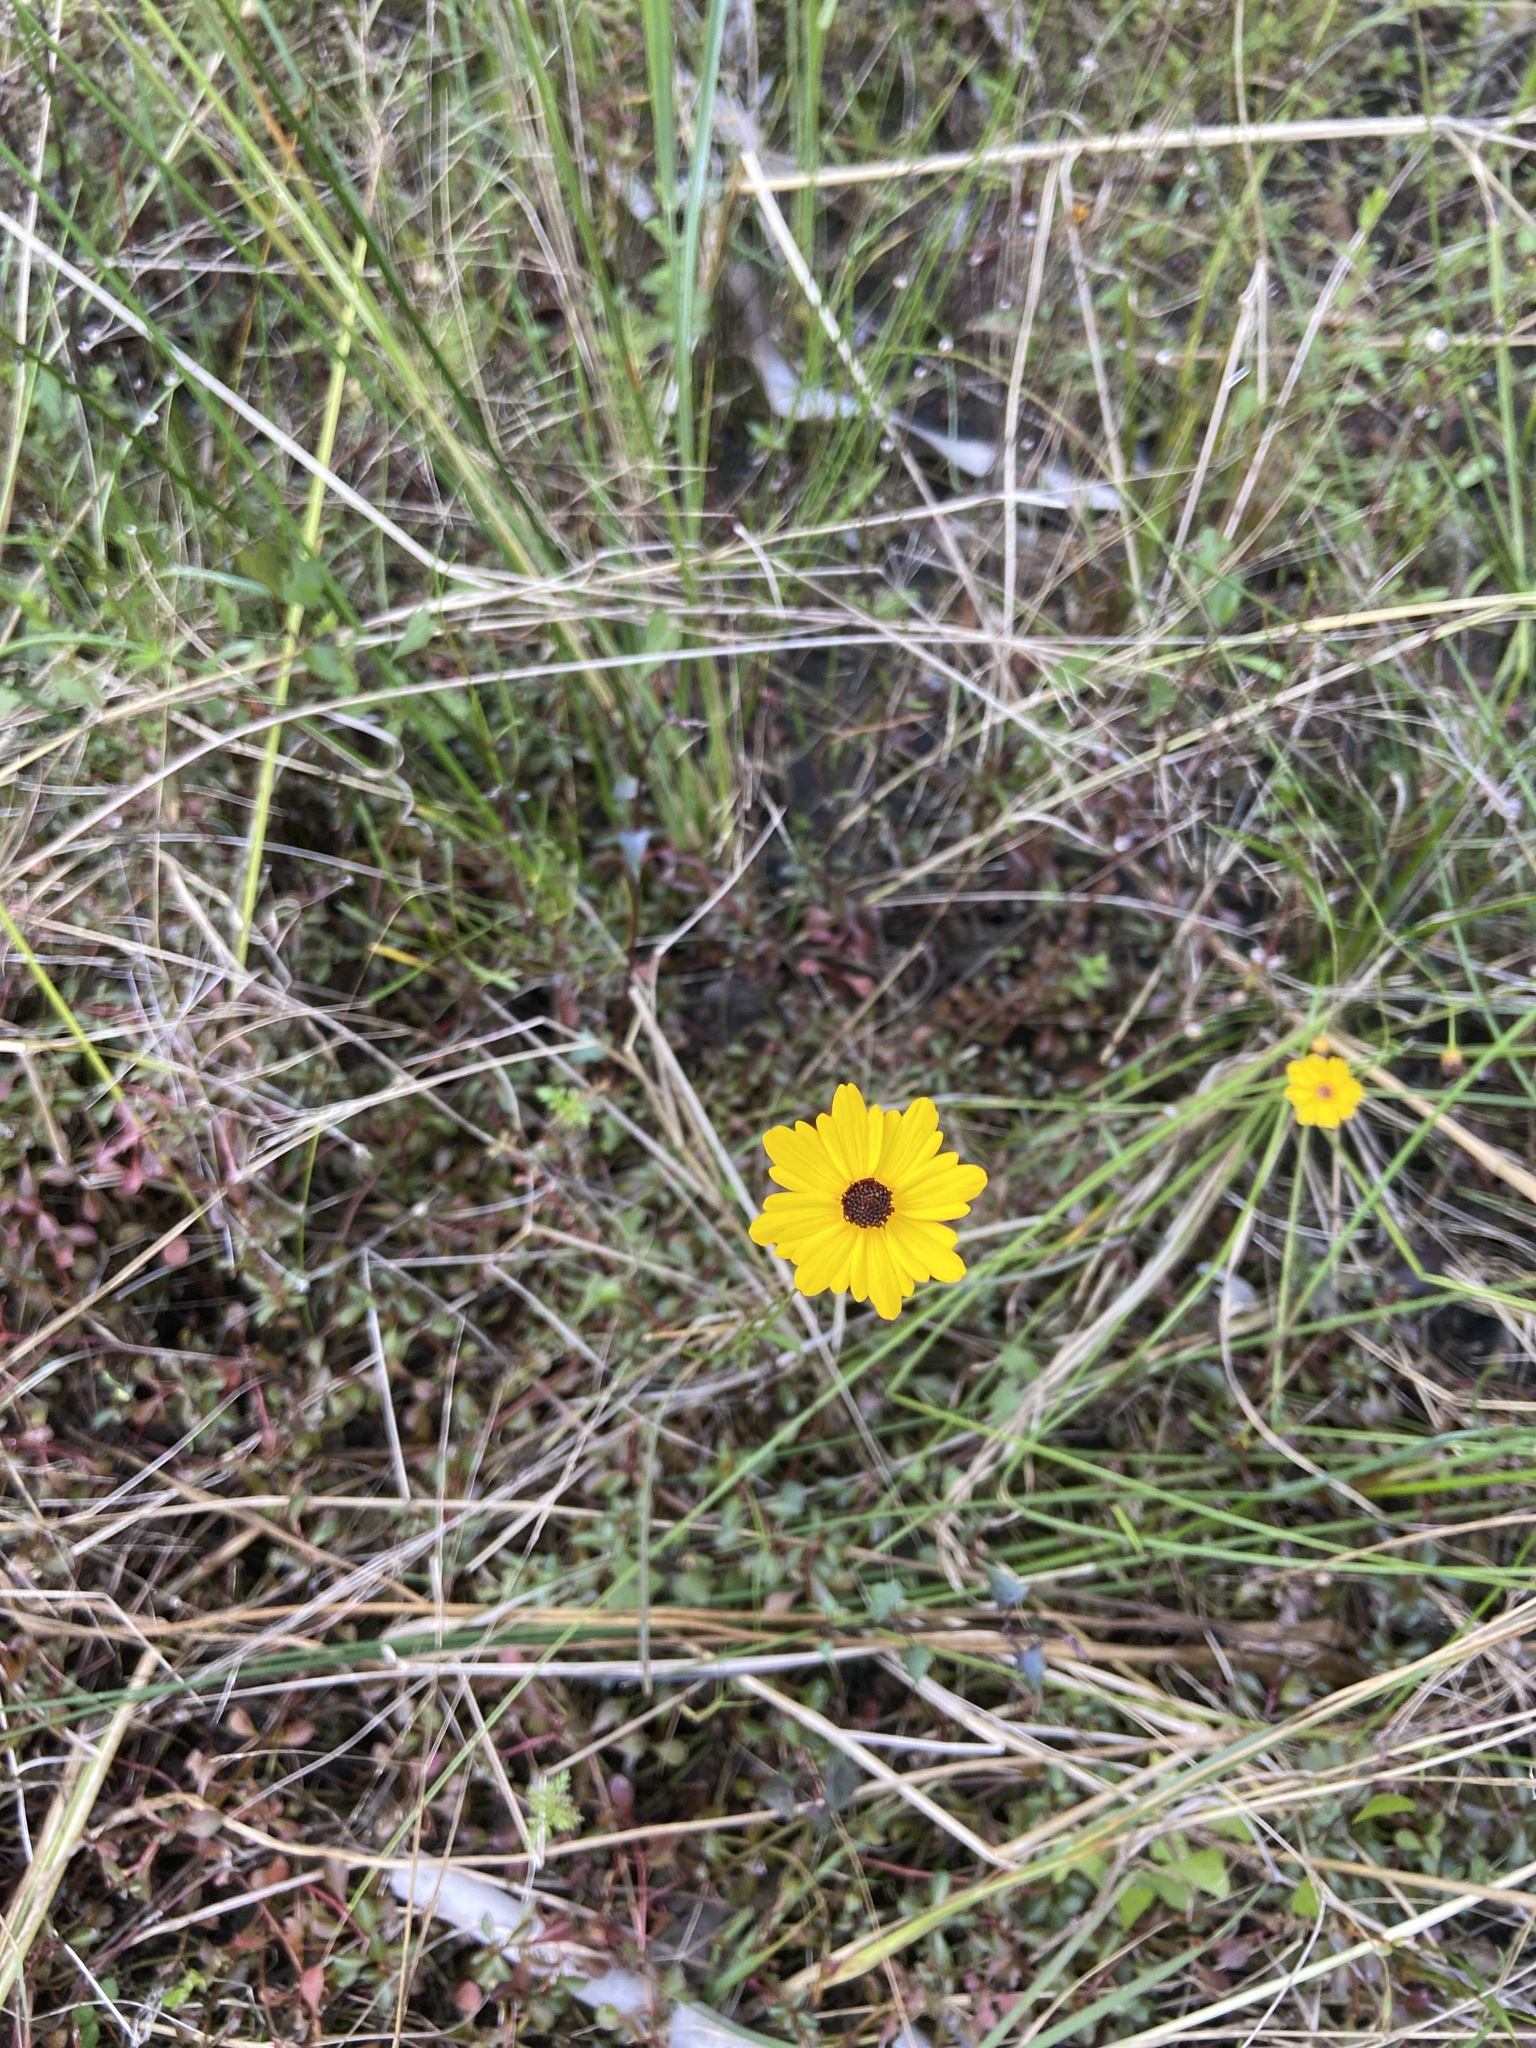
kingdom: Plantae
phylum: Tracheophyta
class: Magnoliopsida
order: Asterales
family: Asteraceae
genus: Coreopsis
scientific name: Coreopsis leavenworthii
